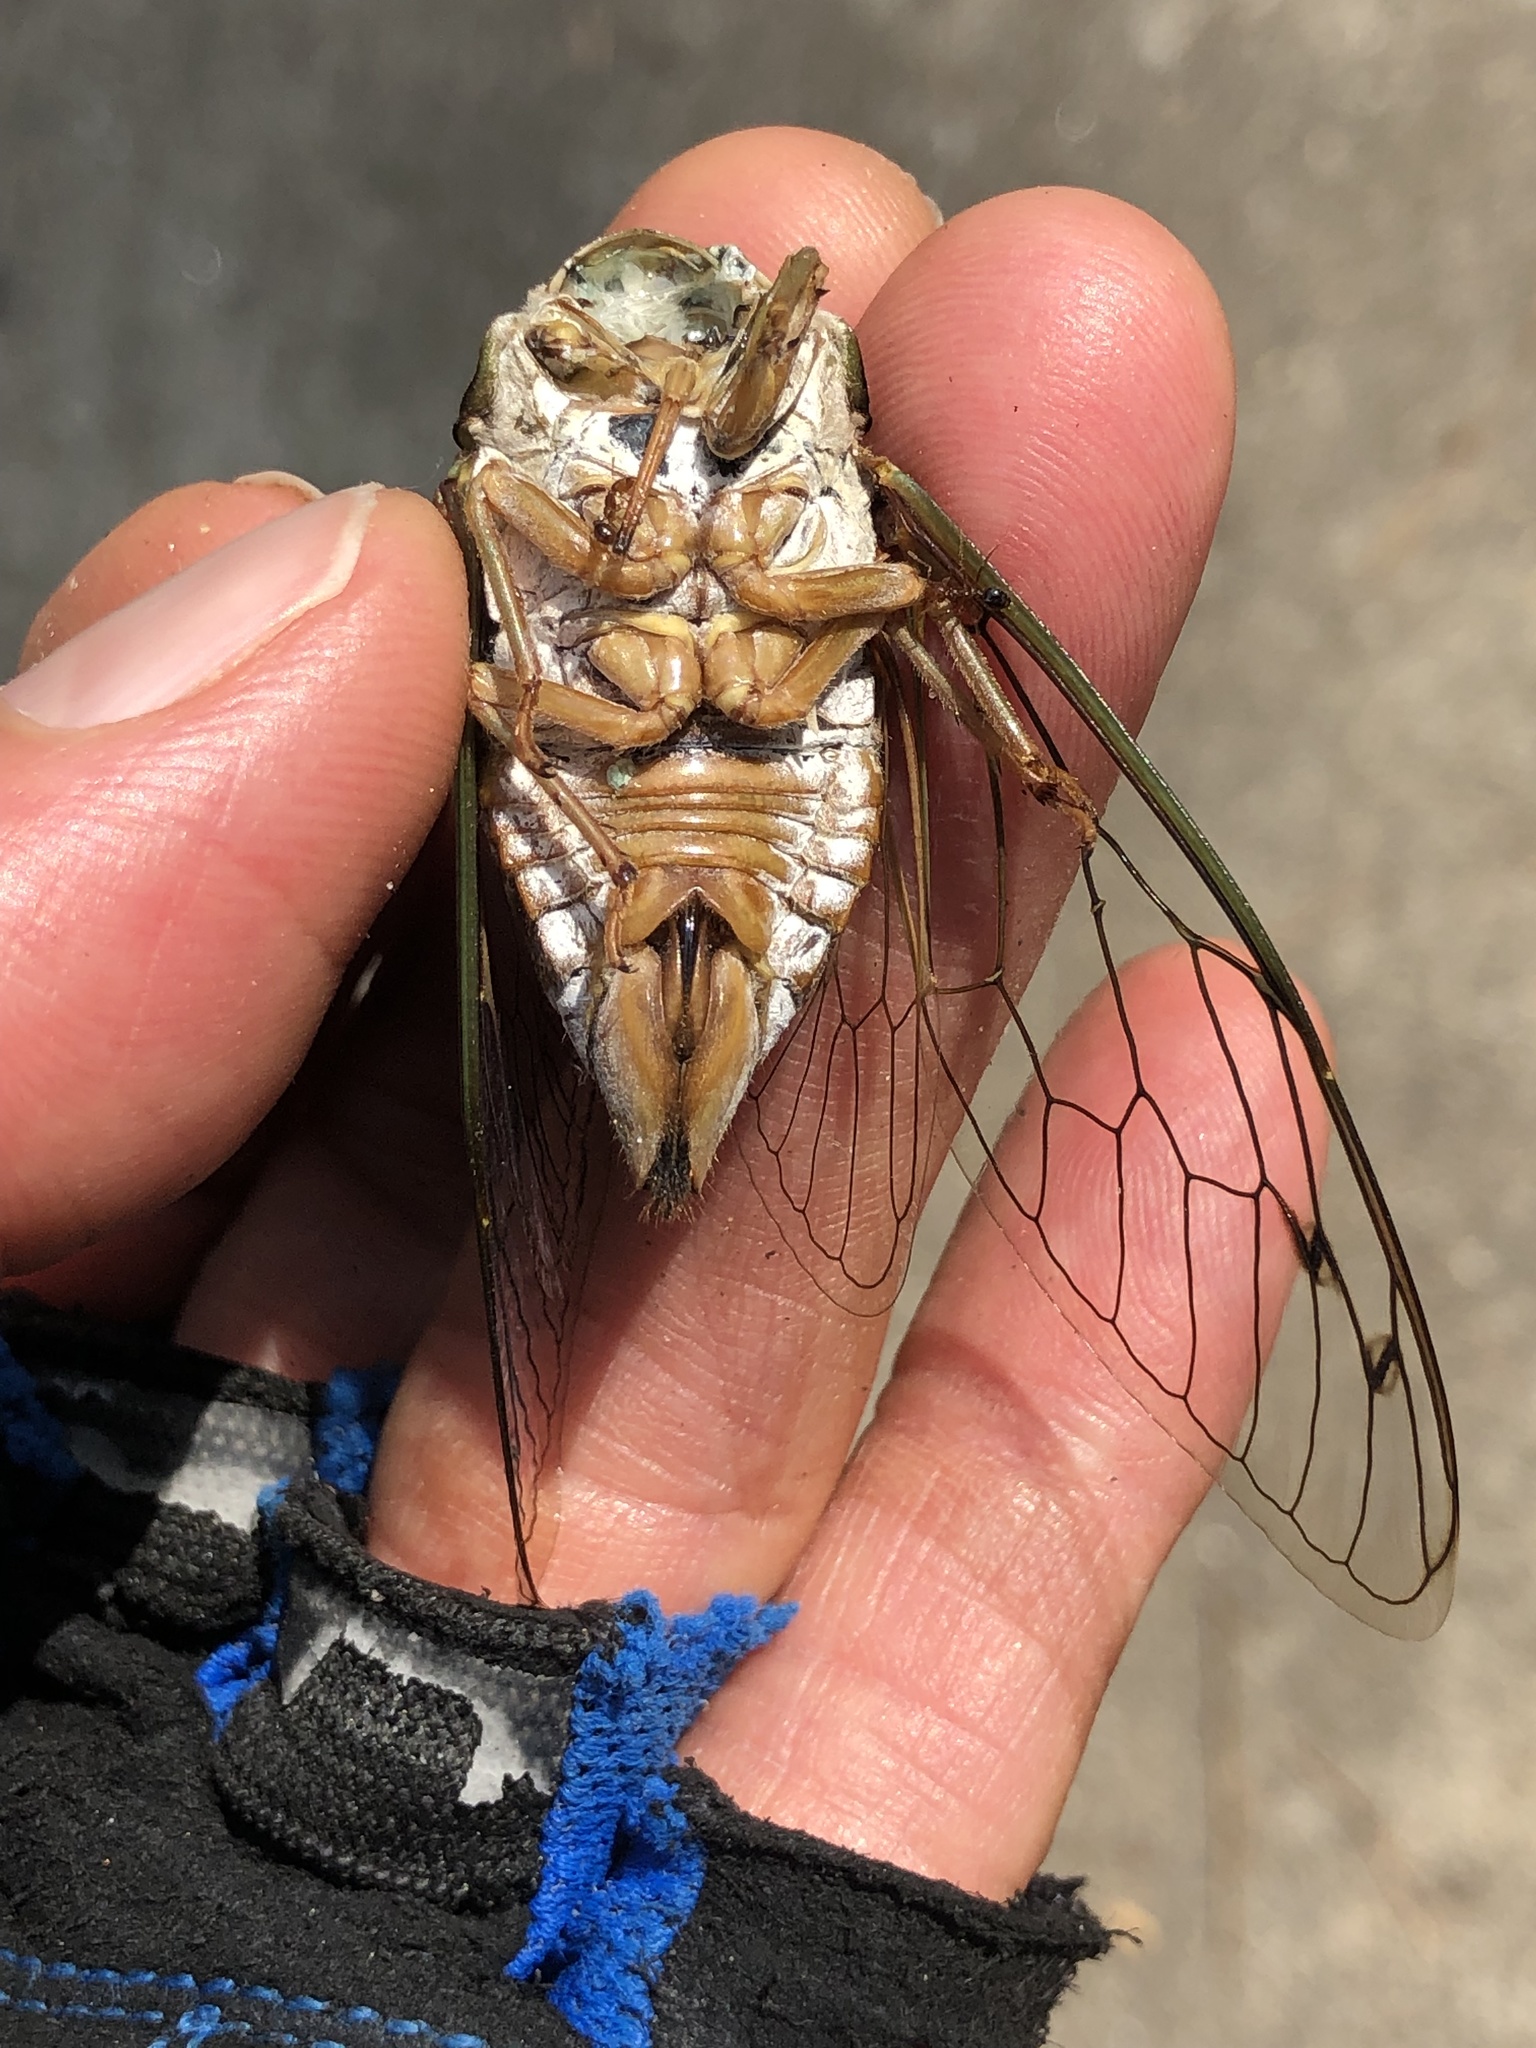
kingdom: Animalia
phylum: Arthropoda
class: Insecta
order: Hemiptera
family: Cicadidae
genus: Megatibicen
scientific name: Megatibicen resh
